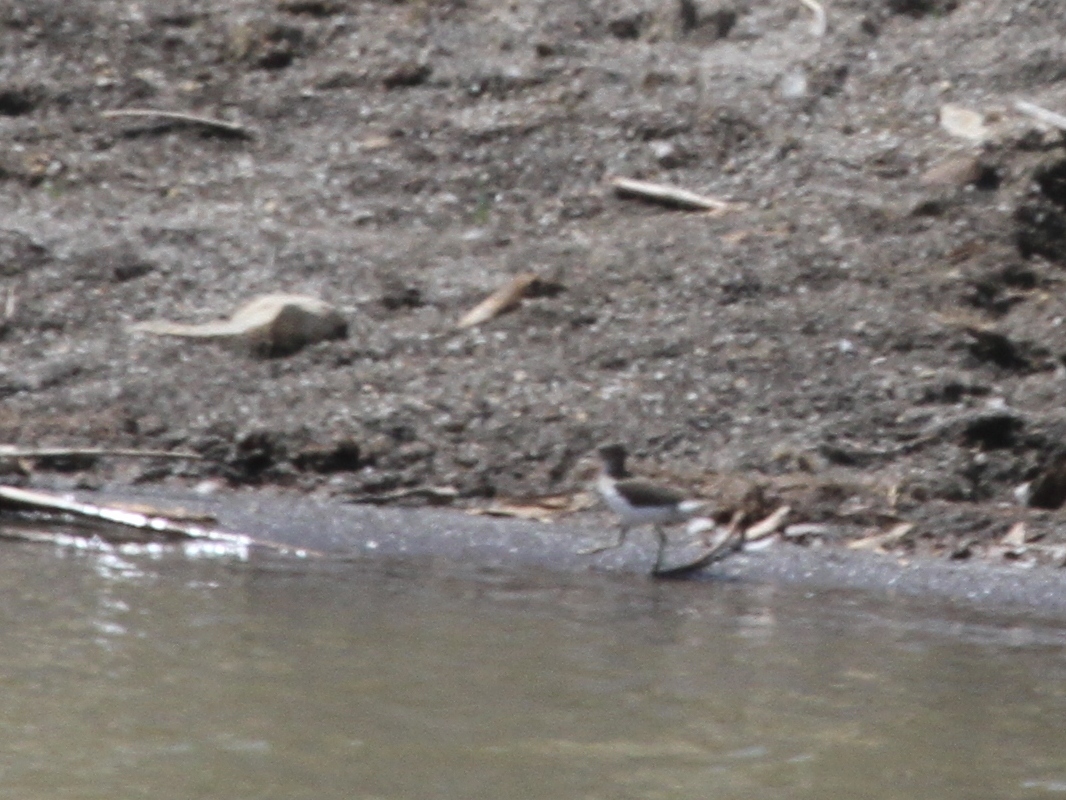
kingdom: Animalia
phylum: Chordata
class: Aves
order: Charadriiformes
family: Scolopacidae
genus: Actitis
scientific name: Actitis hypoleucos
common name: Common sandpiper
